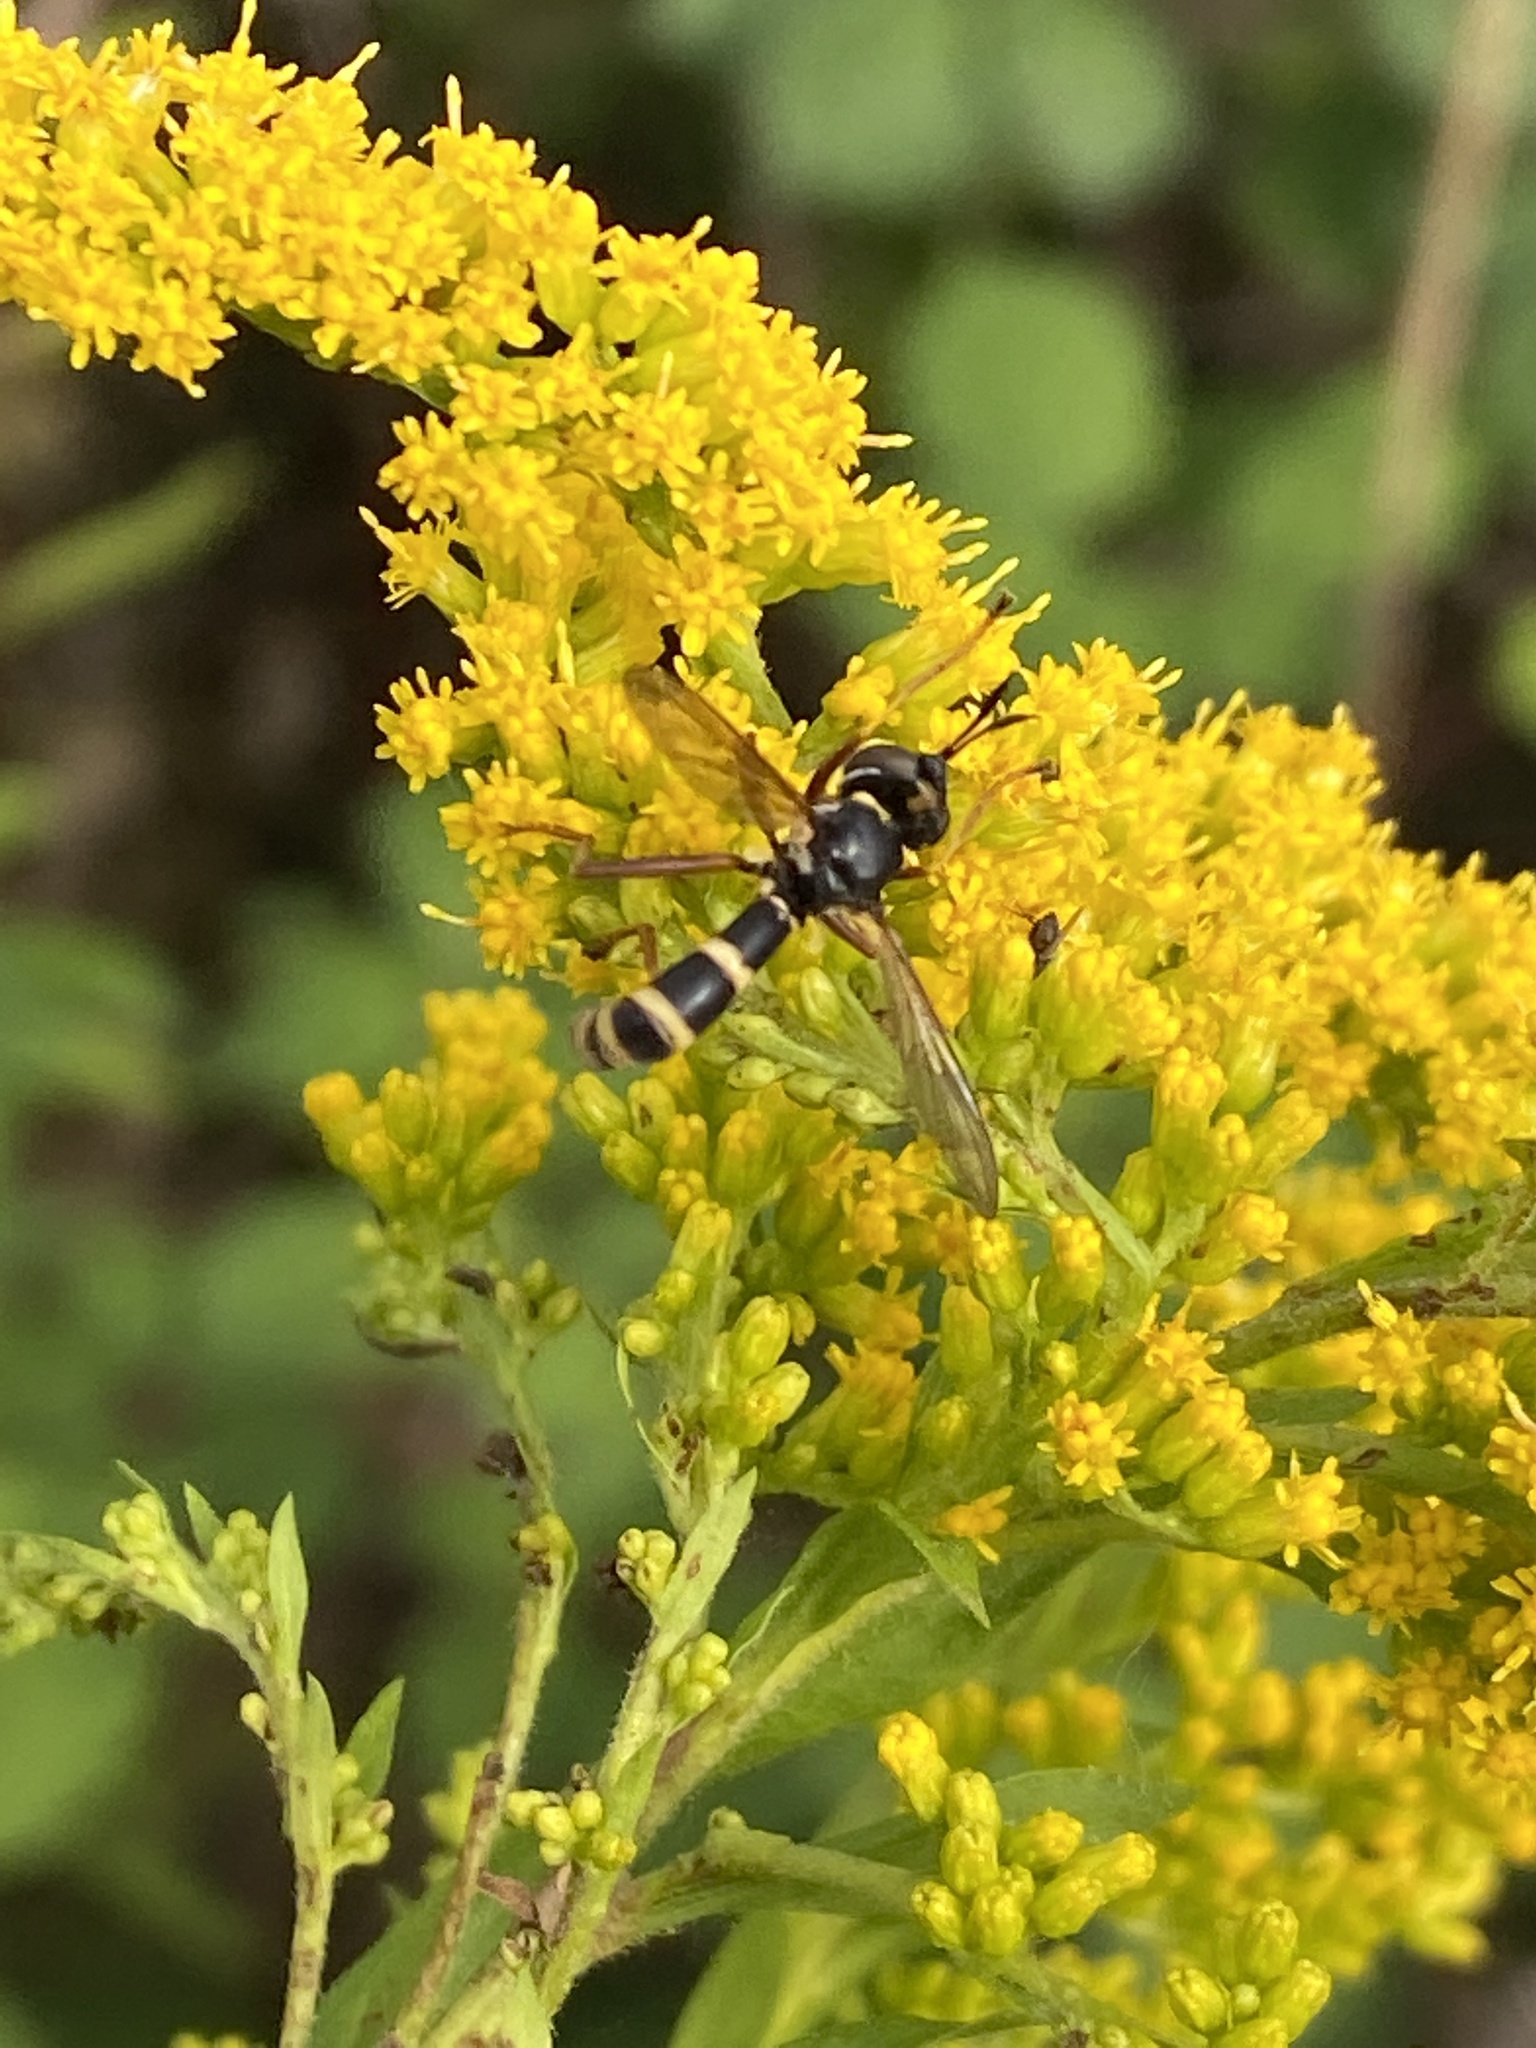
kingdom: Animalia
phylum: Arthropoda
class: Insecta
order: Diptera
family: Conopidae
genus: Conops
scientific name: Conops quadrifasciatus
